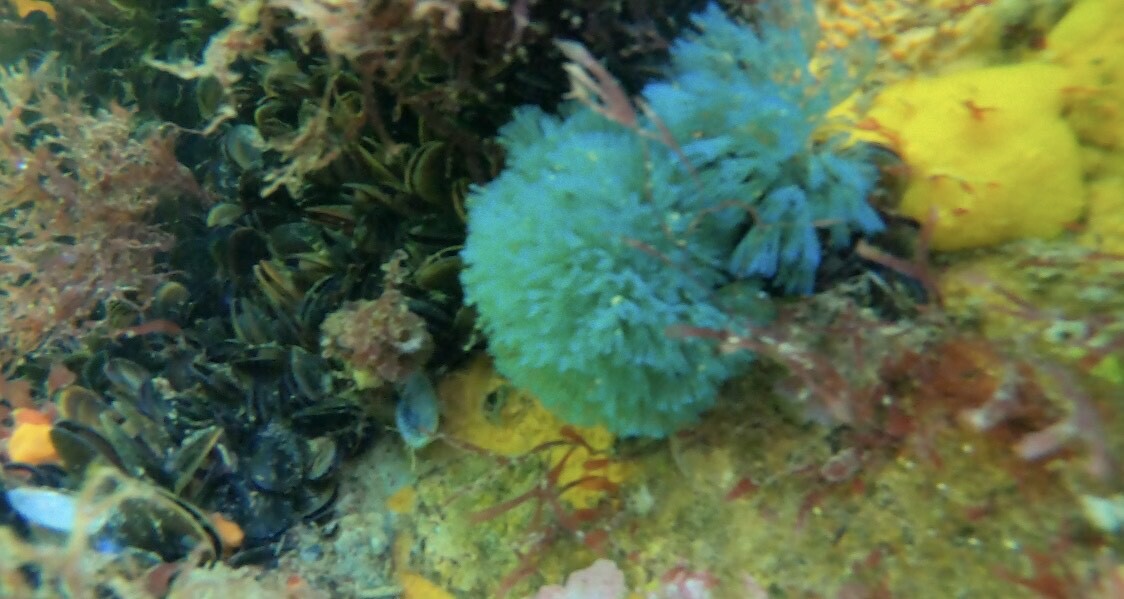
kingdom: Animalia
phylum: Bryozoa
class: Gymnolaemata
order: Cheilostomatida
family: Bugulidae
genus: Virididentula
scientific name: Virididentula dentata
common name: Bryozoan
